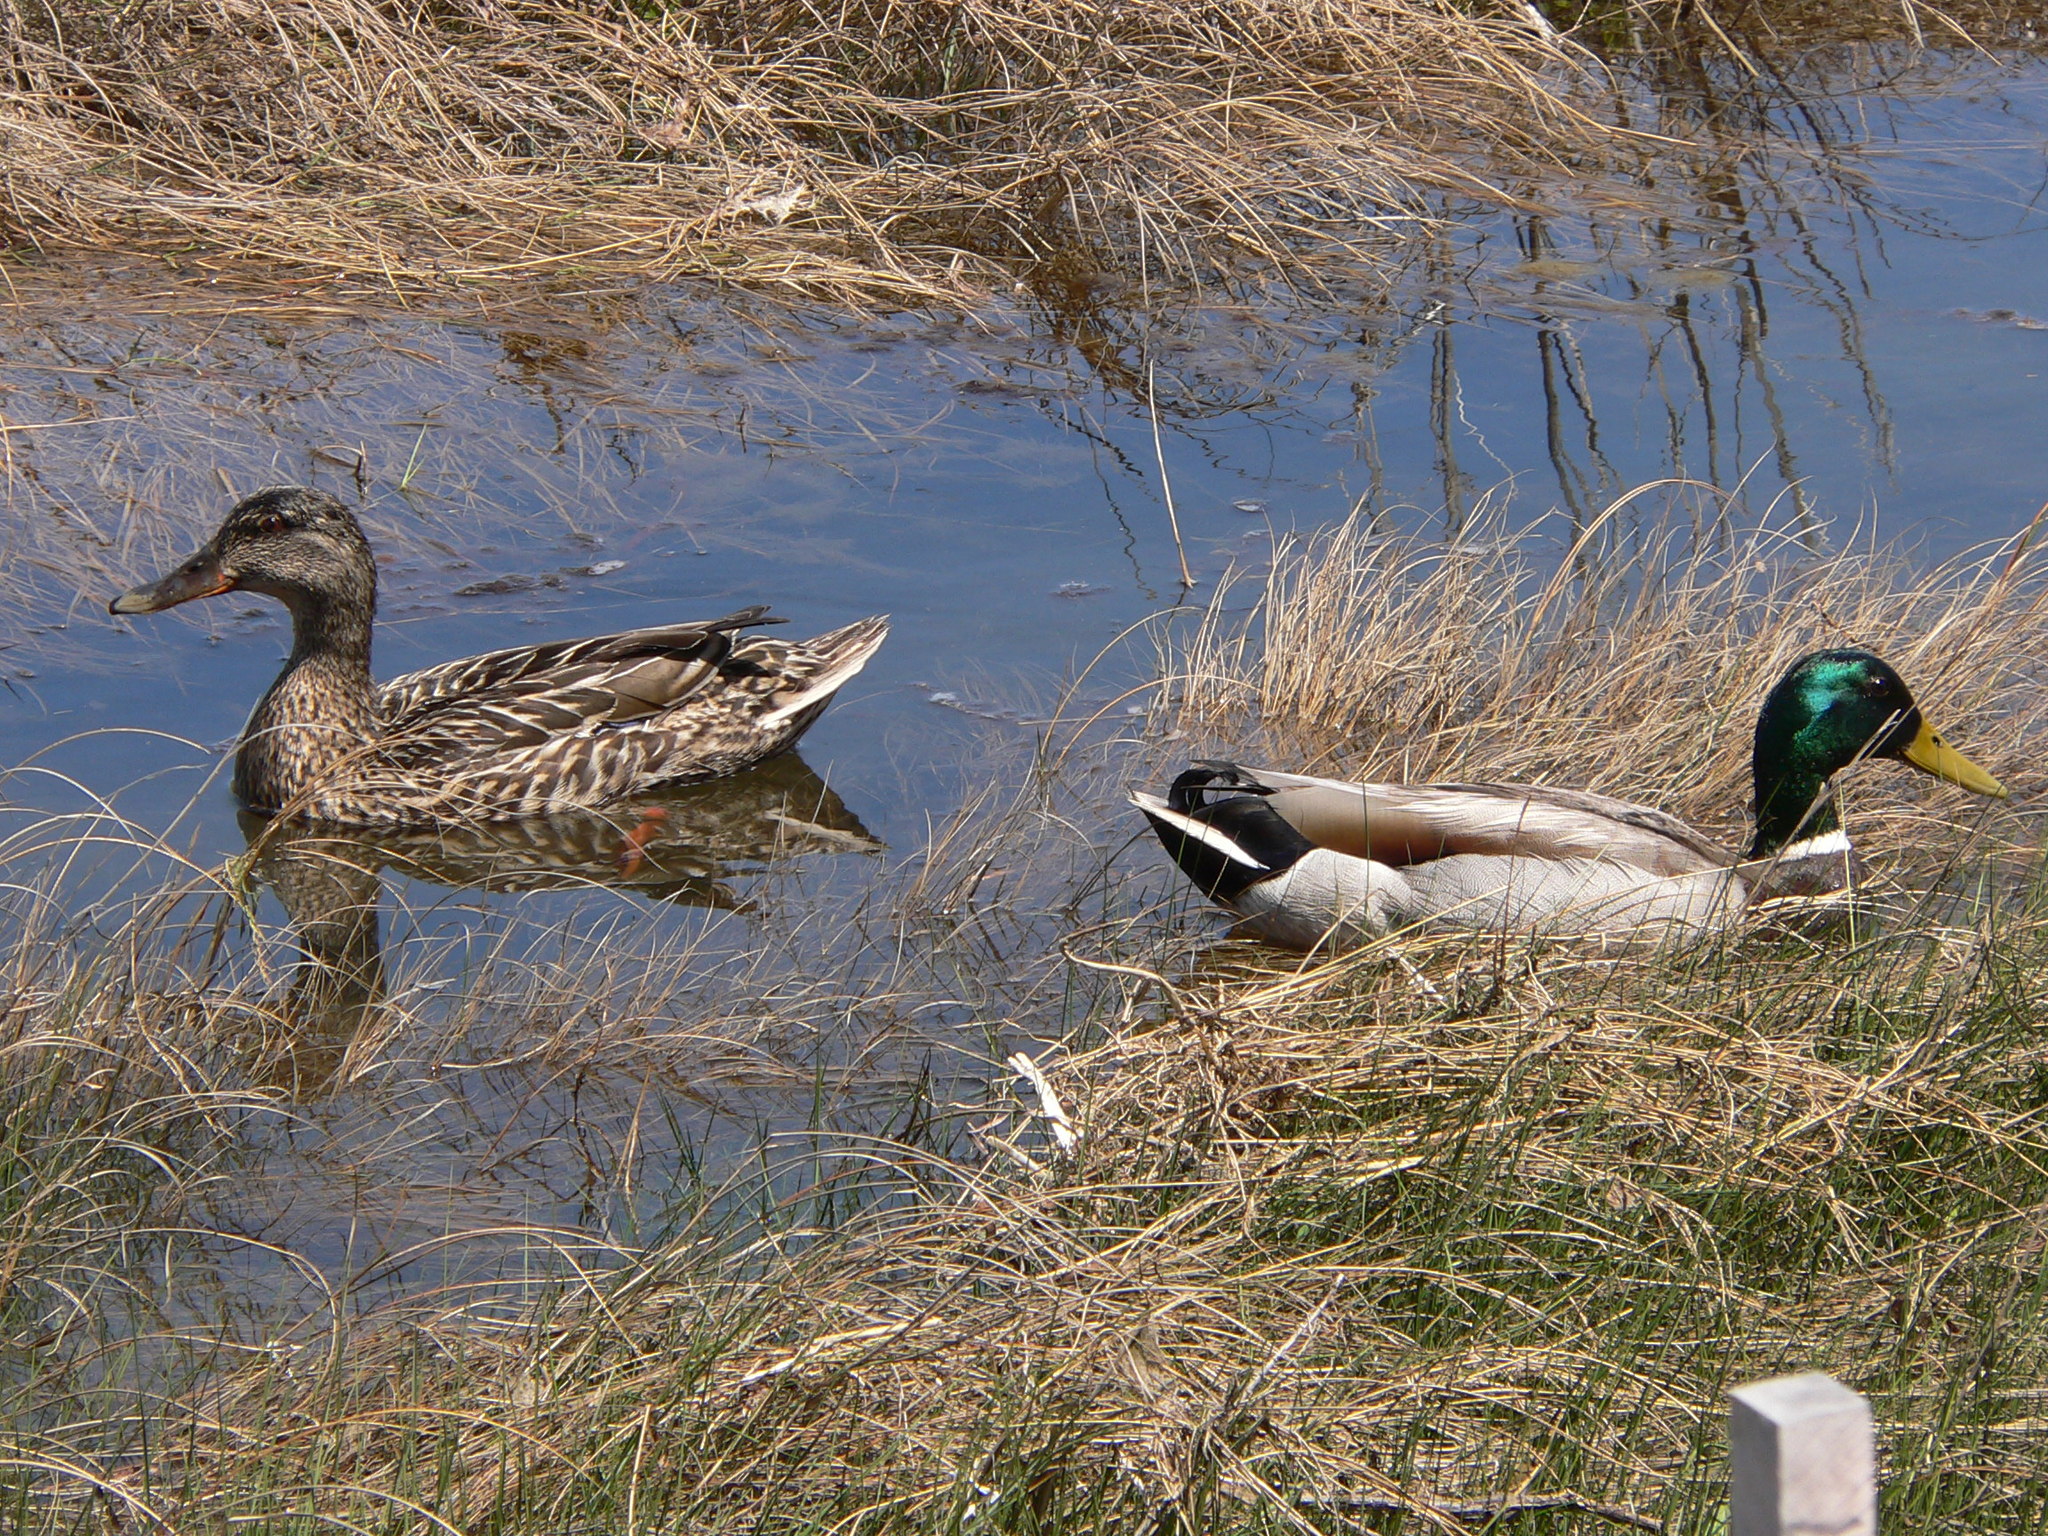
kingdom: Animalia
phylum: Chordata
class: Aves
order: Anseriformes
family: Anatidae
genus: Anas
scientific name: Anas platyrhynchos
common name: Mallard
